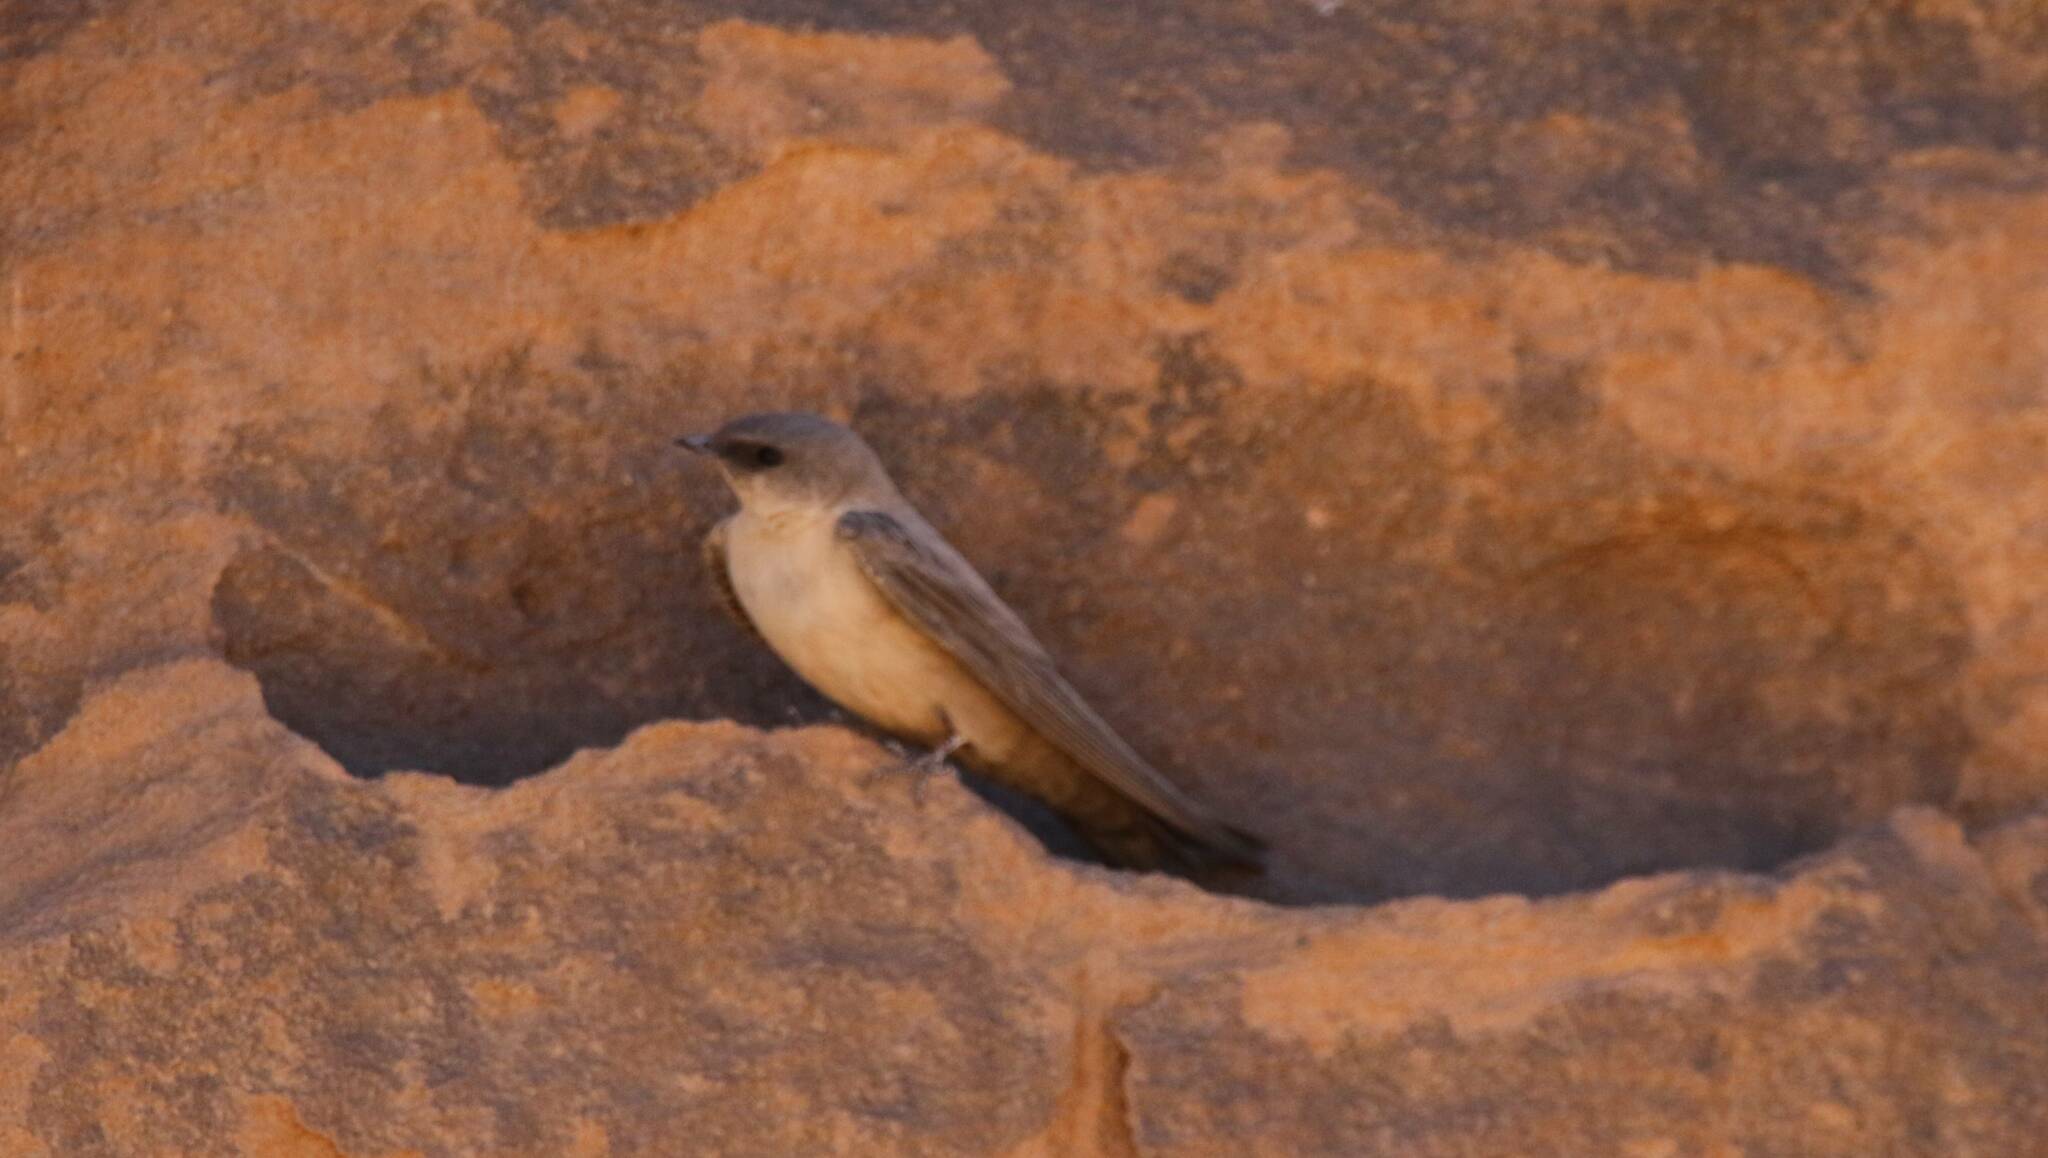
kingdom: Animalia
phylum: Chordata
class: Aves
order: Passeriformes
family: Hirundinidae
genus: Ptyonoprogne
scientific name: Ptyonoprogne fuligula
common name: Rock martin
